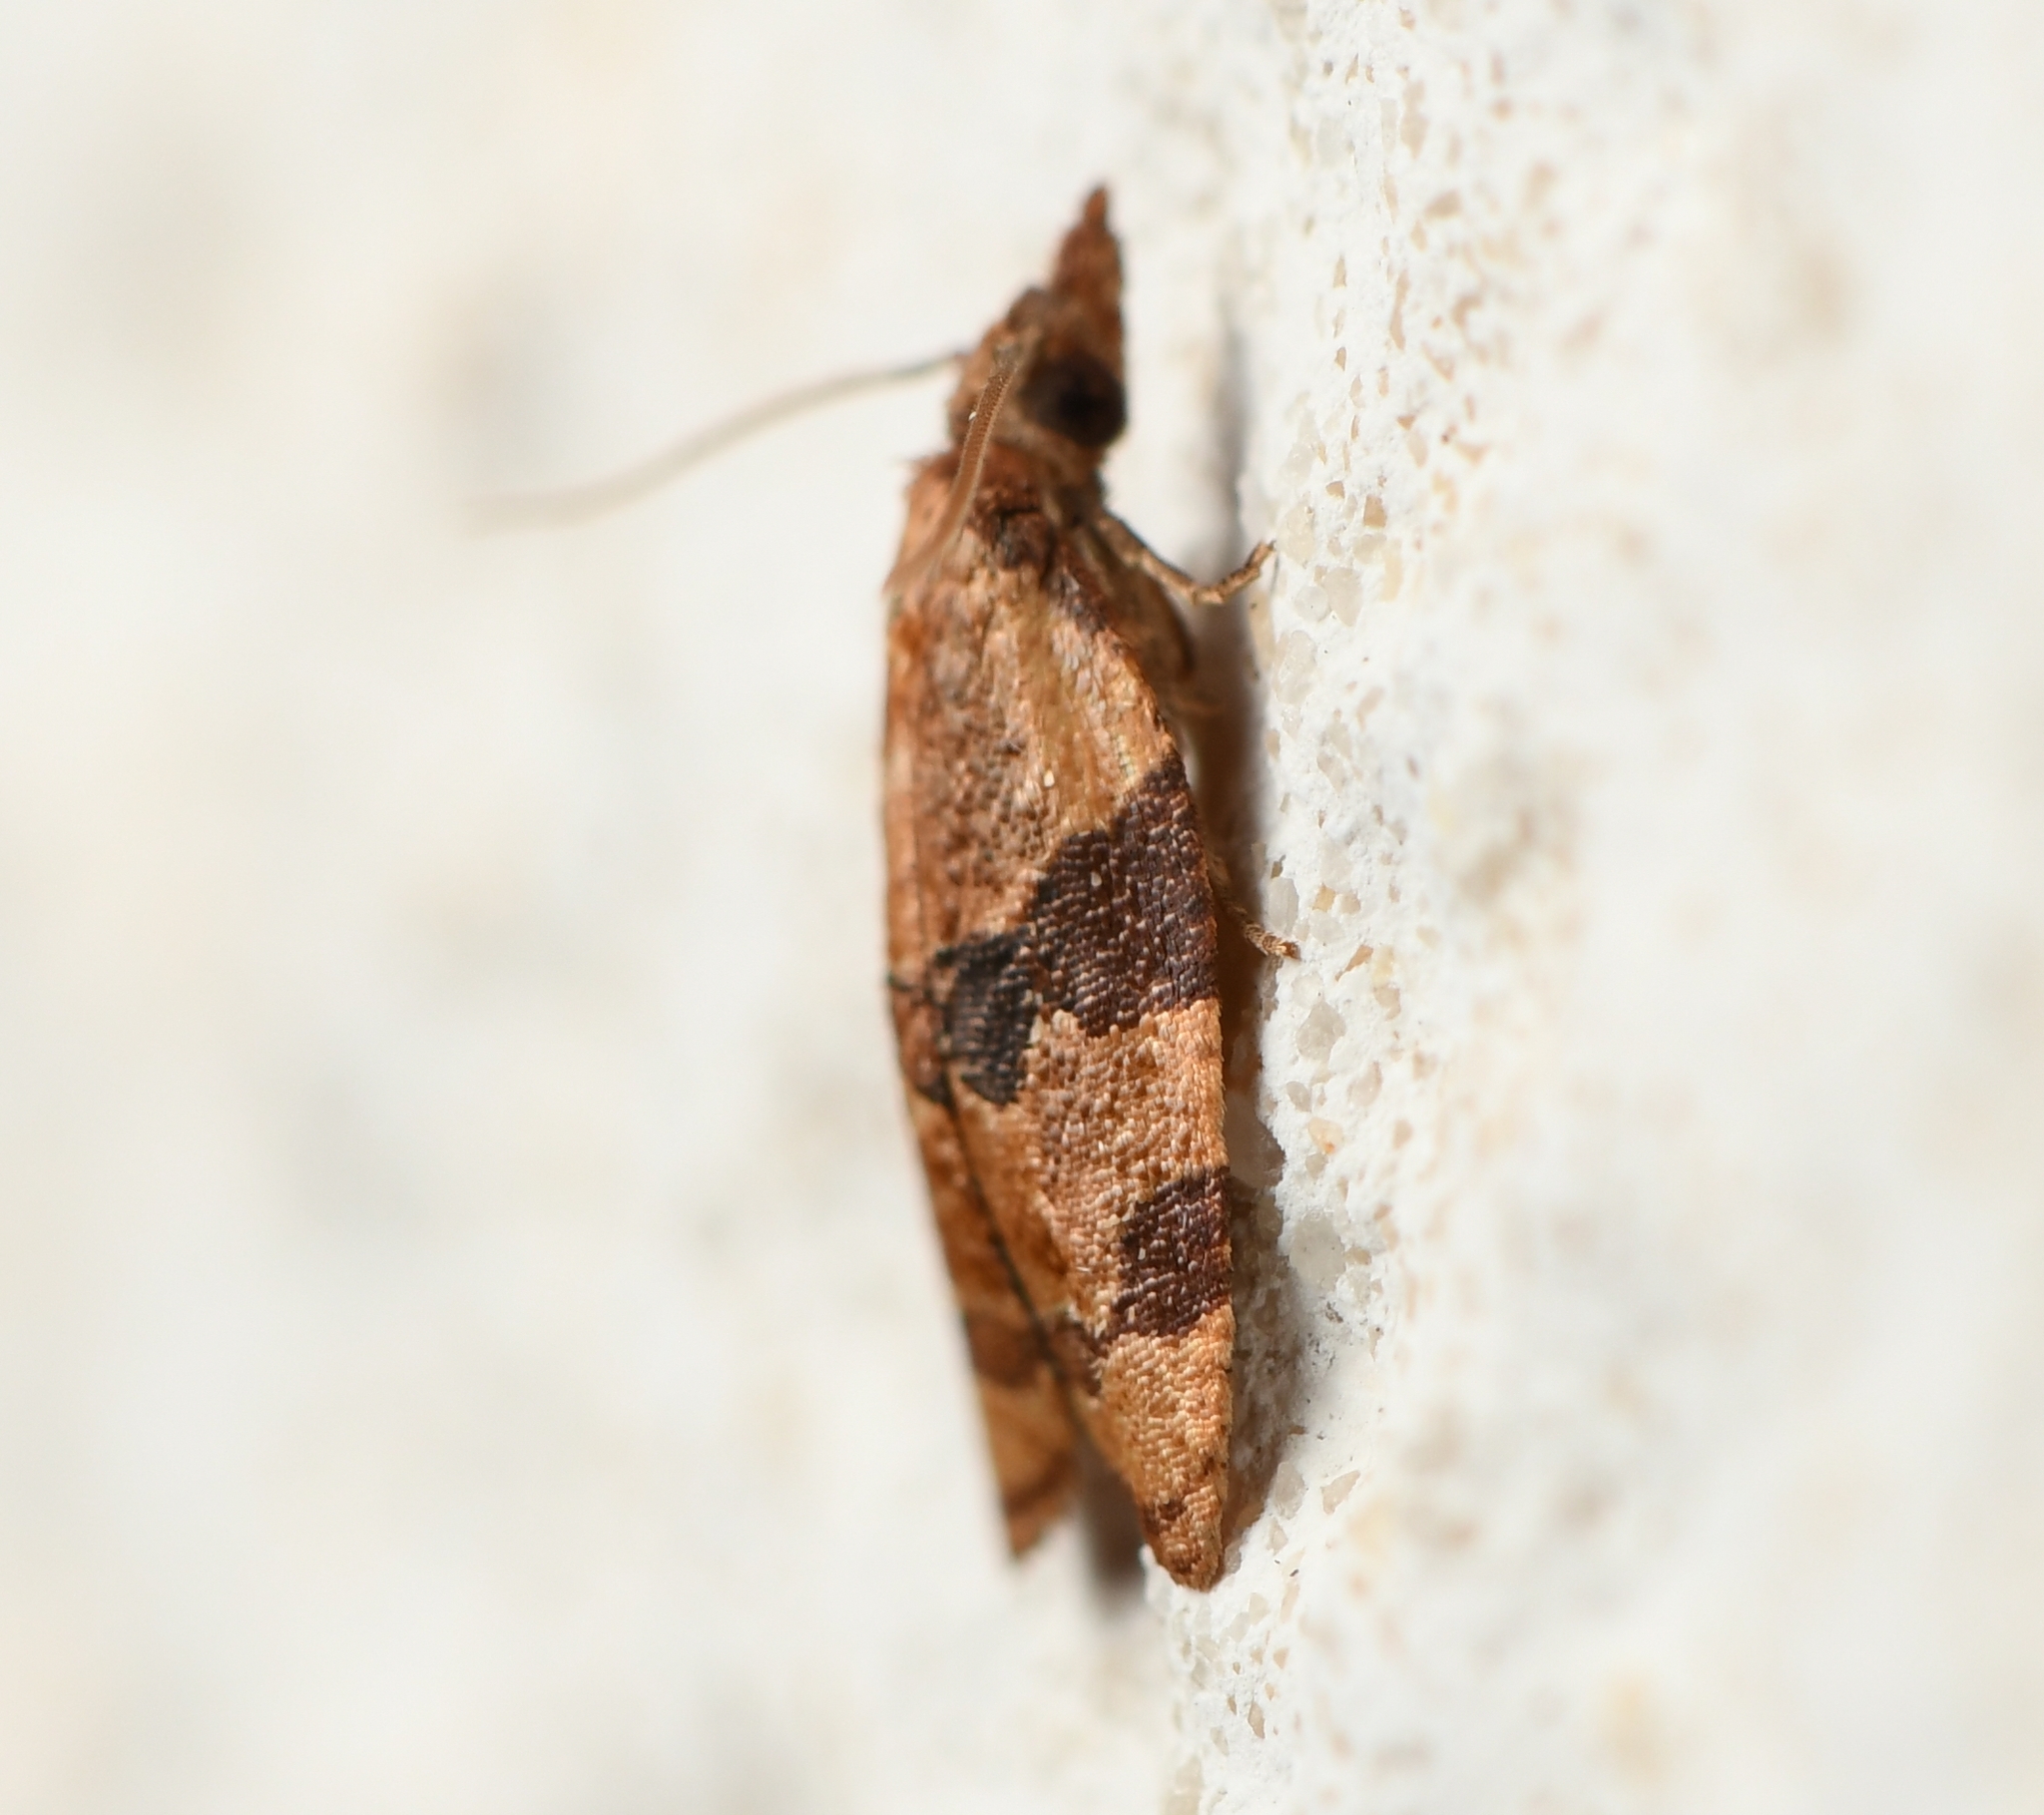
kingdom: Animalia
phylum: Arthropoda
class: Insecta
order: Lepidoptera
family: Tortricidae
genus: Cenopis
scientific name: Cenopis diluticostana
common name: Spring dead-leaf roller moth
